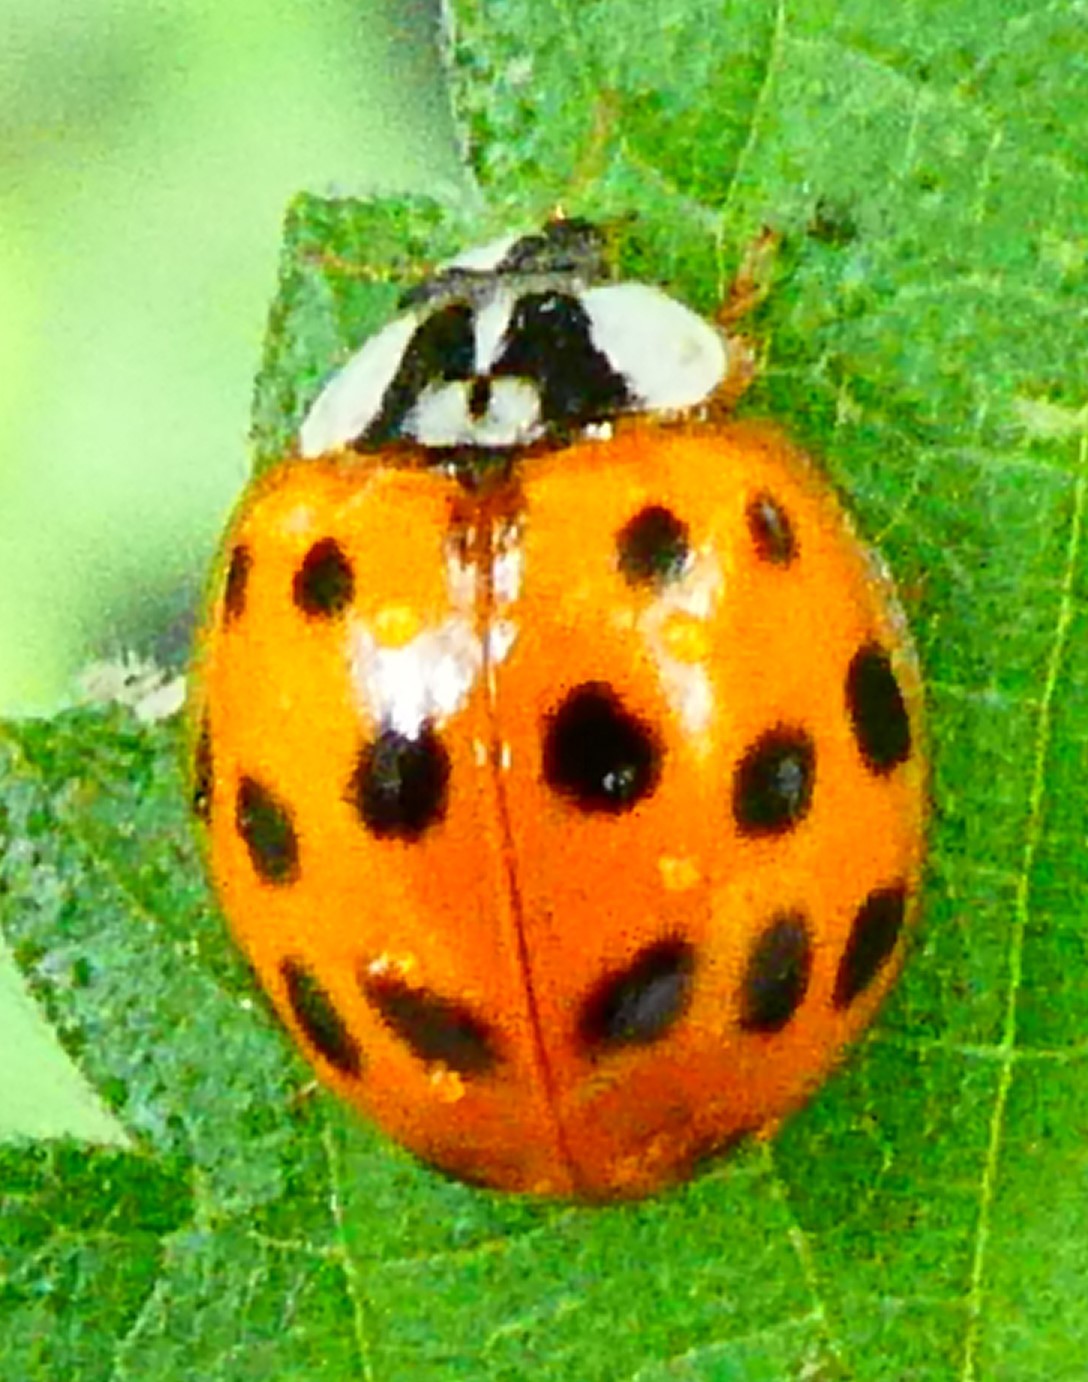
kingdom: Animalia
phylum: Arthropoda
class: Insecta
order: Coleoptera
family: Coccinellidae
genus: Harmonia
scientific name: Harmonia axyridis
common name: Harlequin ladybird
